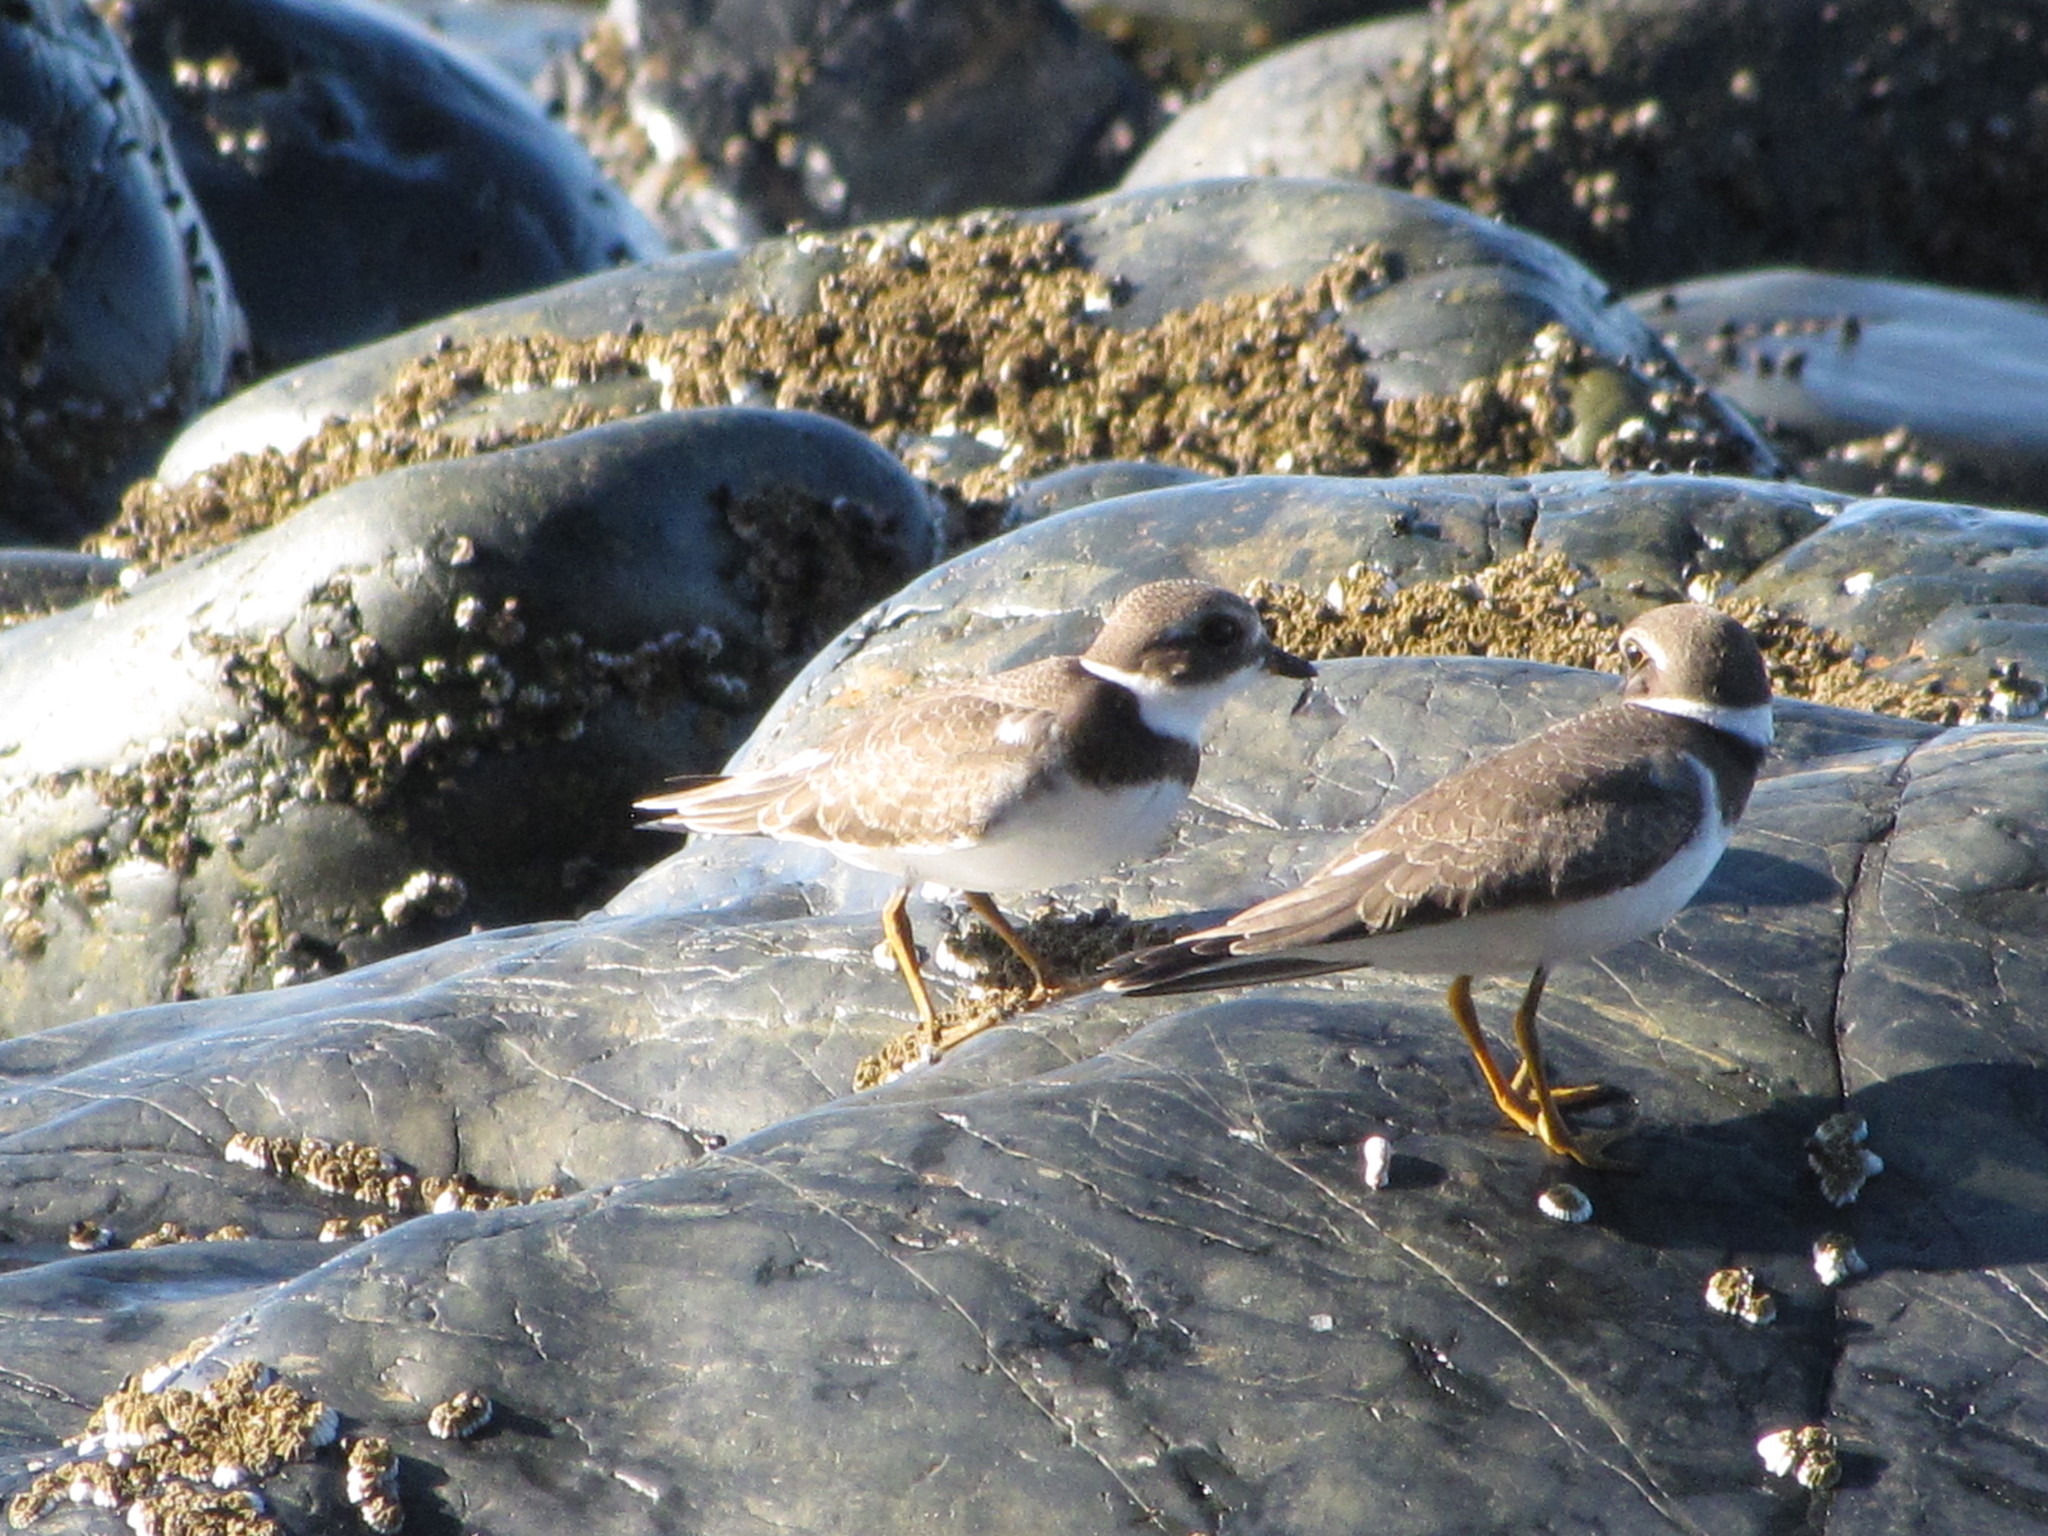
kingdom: Animalia
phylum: Chordata
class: Aves
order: Charadriiformes
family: Charadriidae
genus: Charadrius
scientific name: Charadrius semipalmatus
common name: Semipalmated plover
